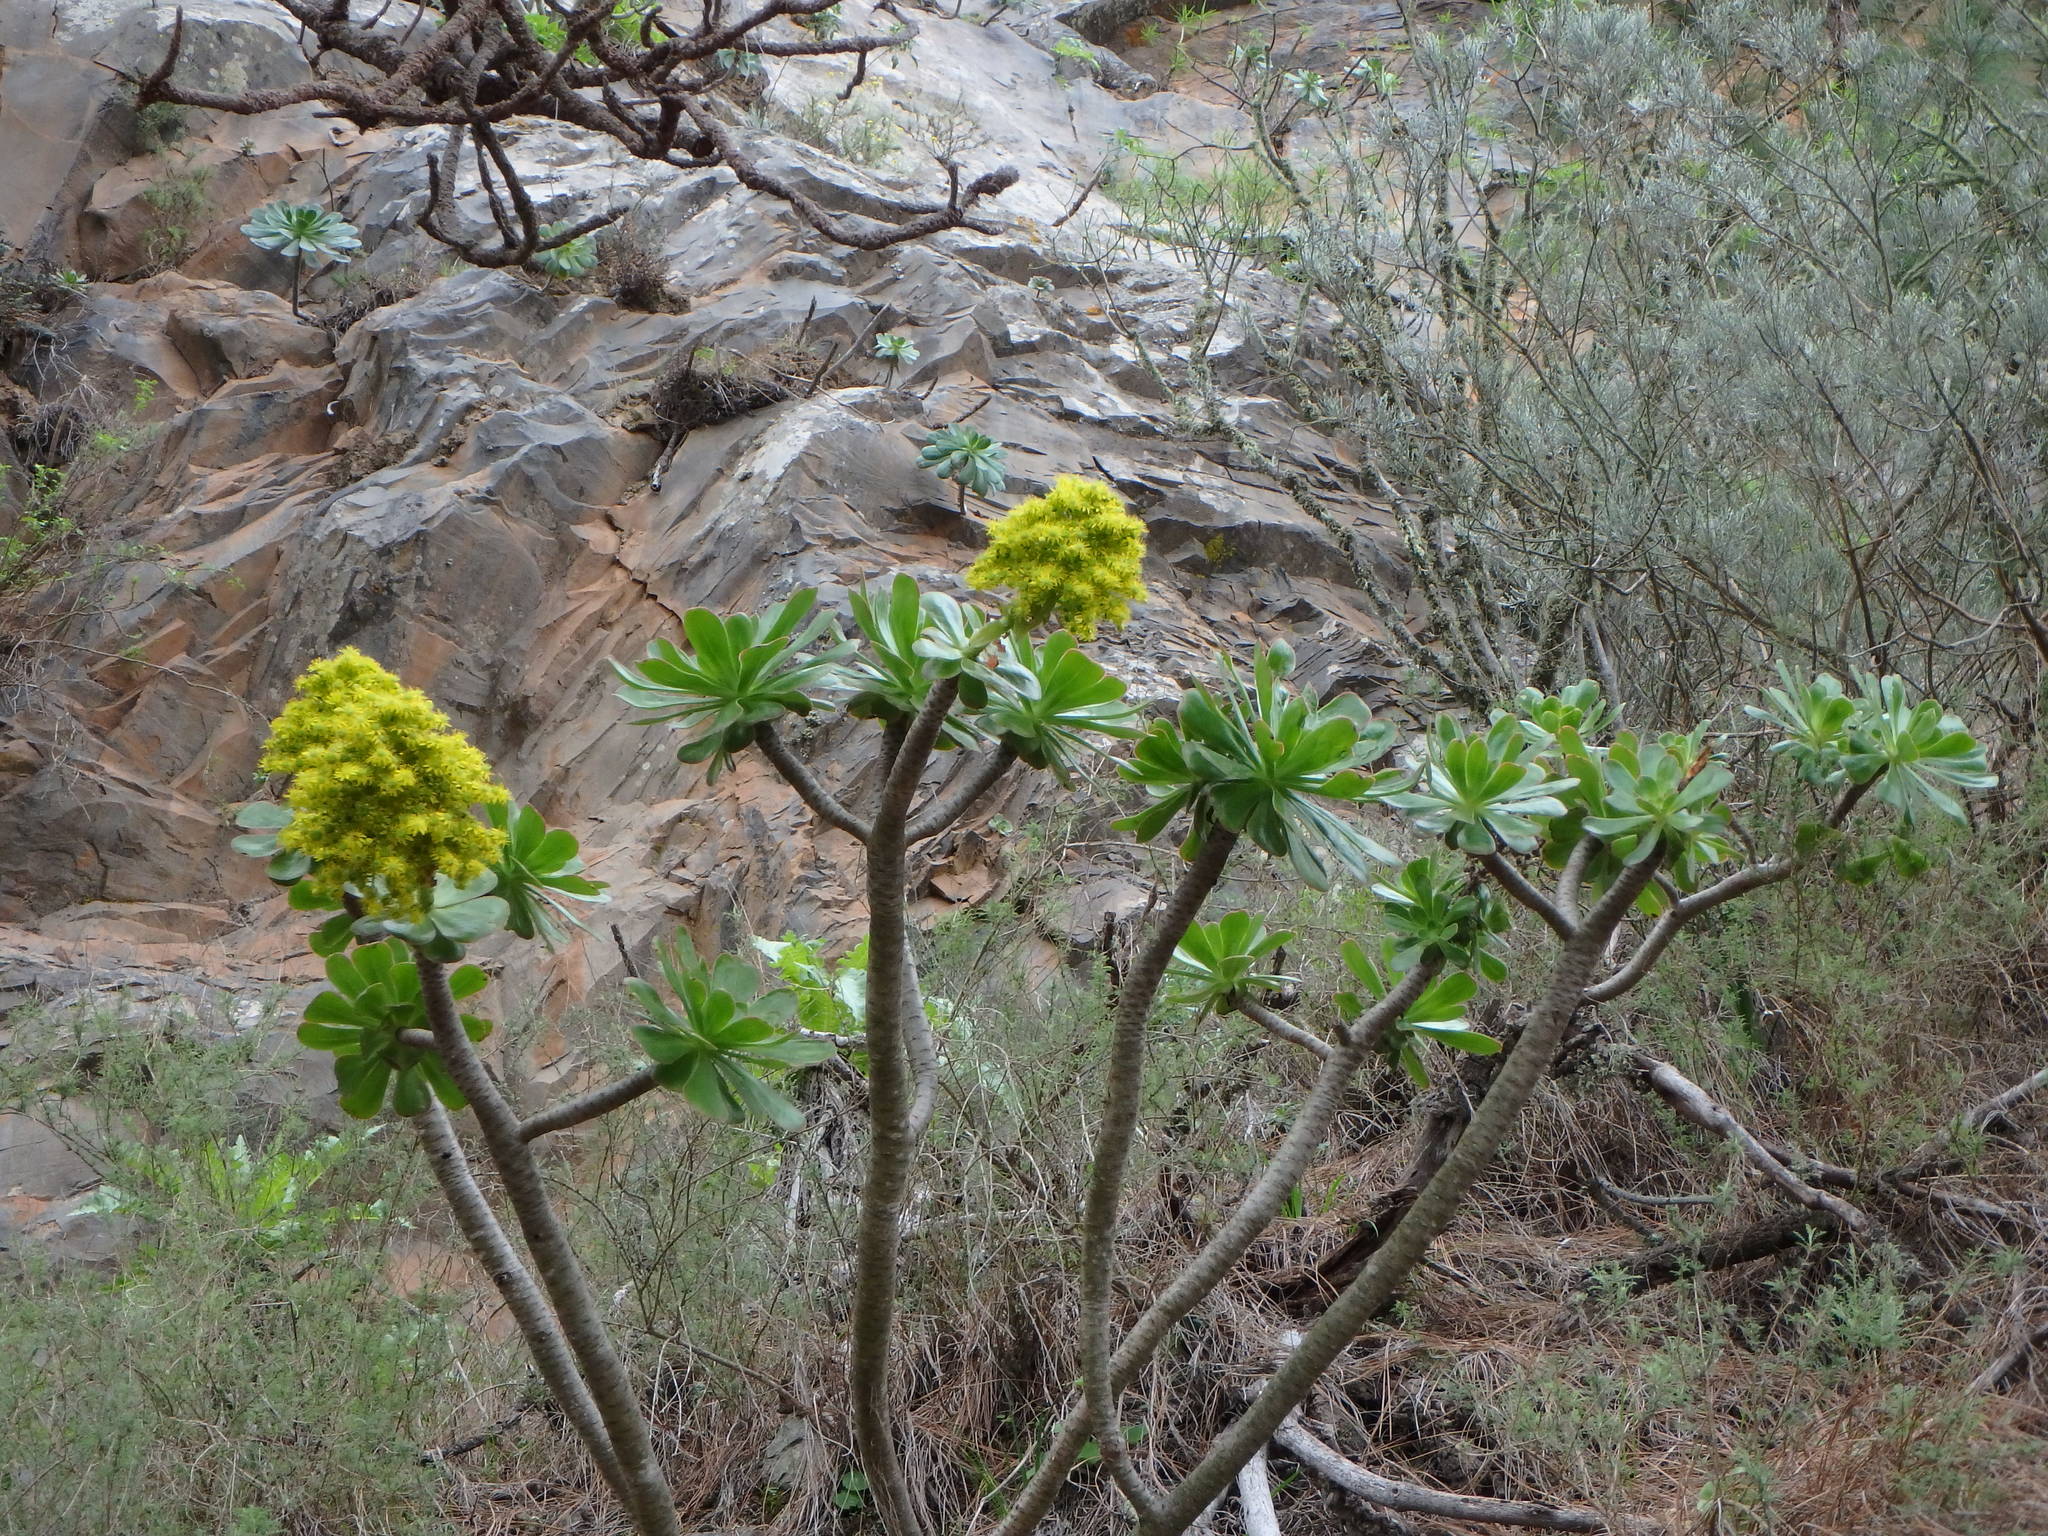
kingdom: Plantae
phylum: Tracheophyta
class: Magnoliopsida
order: Saxifragales
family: Crassulaceae
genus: Aeonium
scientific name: Aeonium arboreum
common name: Tree aeonium
